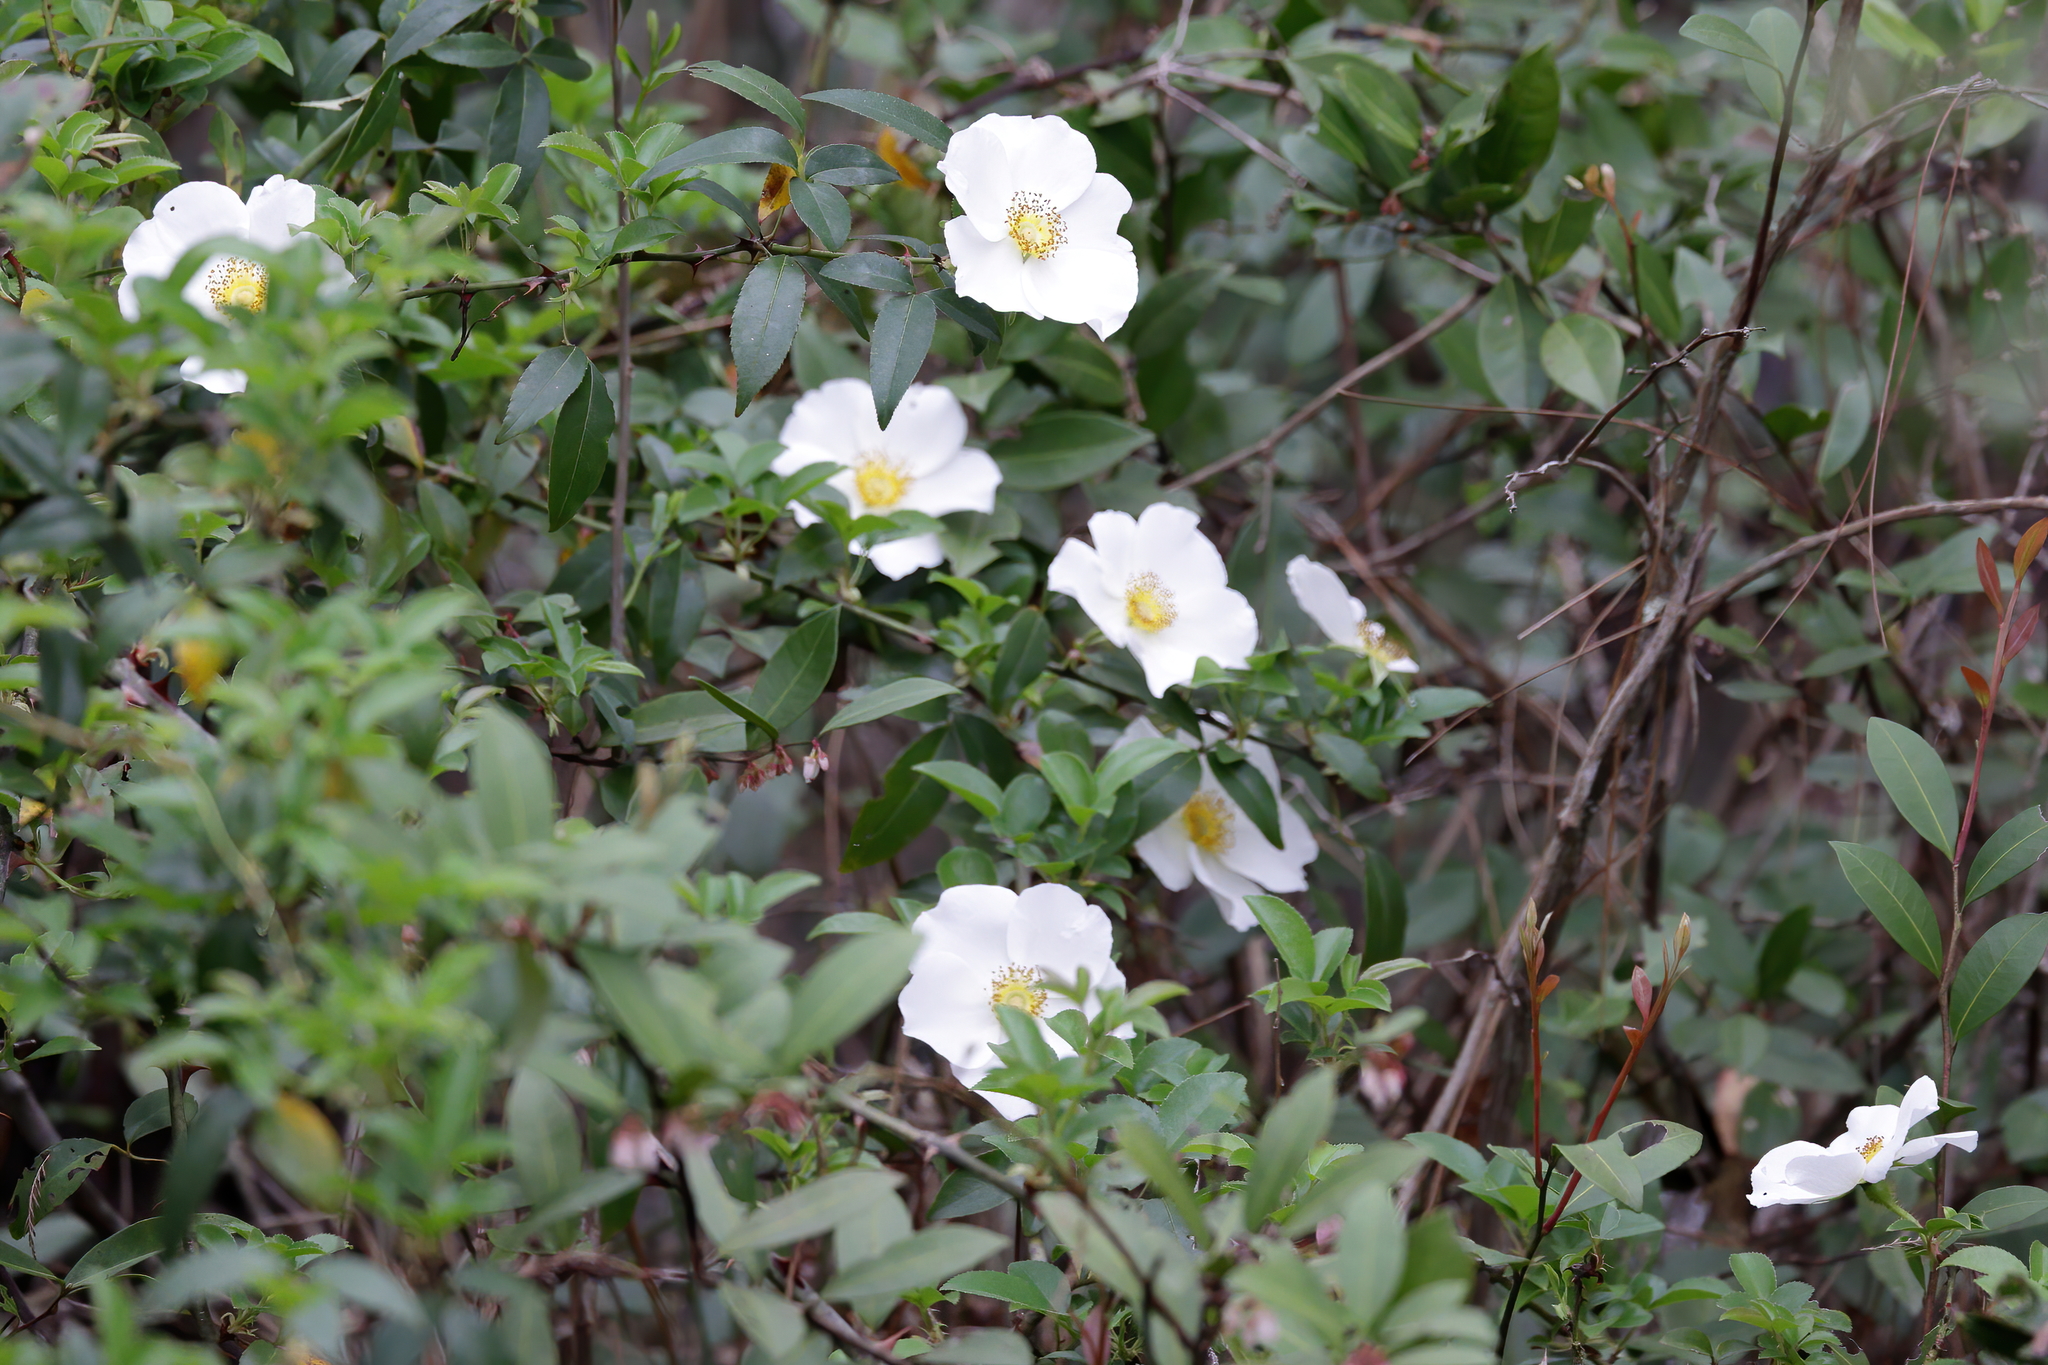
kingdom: Plantae
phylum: Tracheophyta
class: Magnoliopsida
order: Rosales
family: Rosaceae
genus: Rosa
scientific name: Rosa laevigata
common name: Cherokee rose
